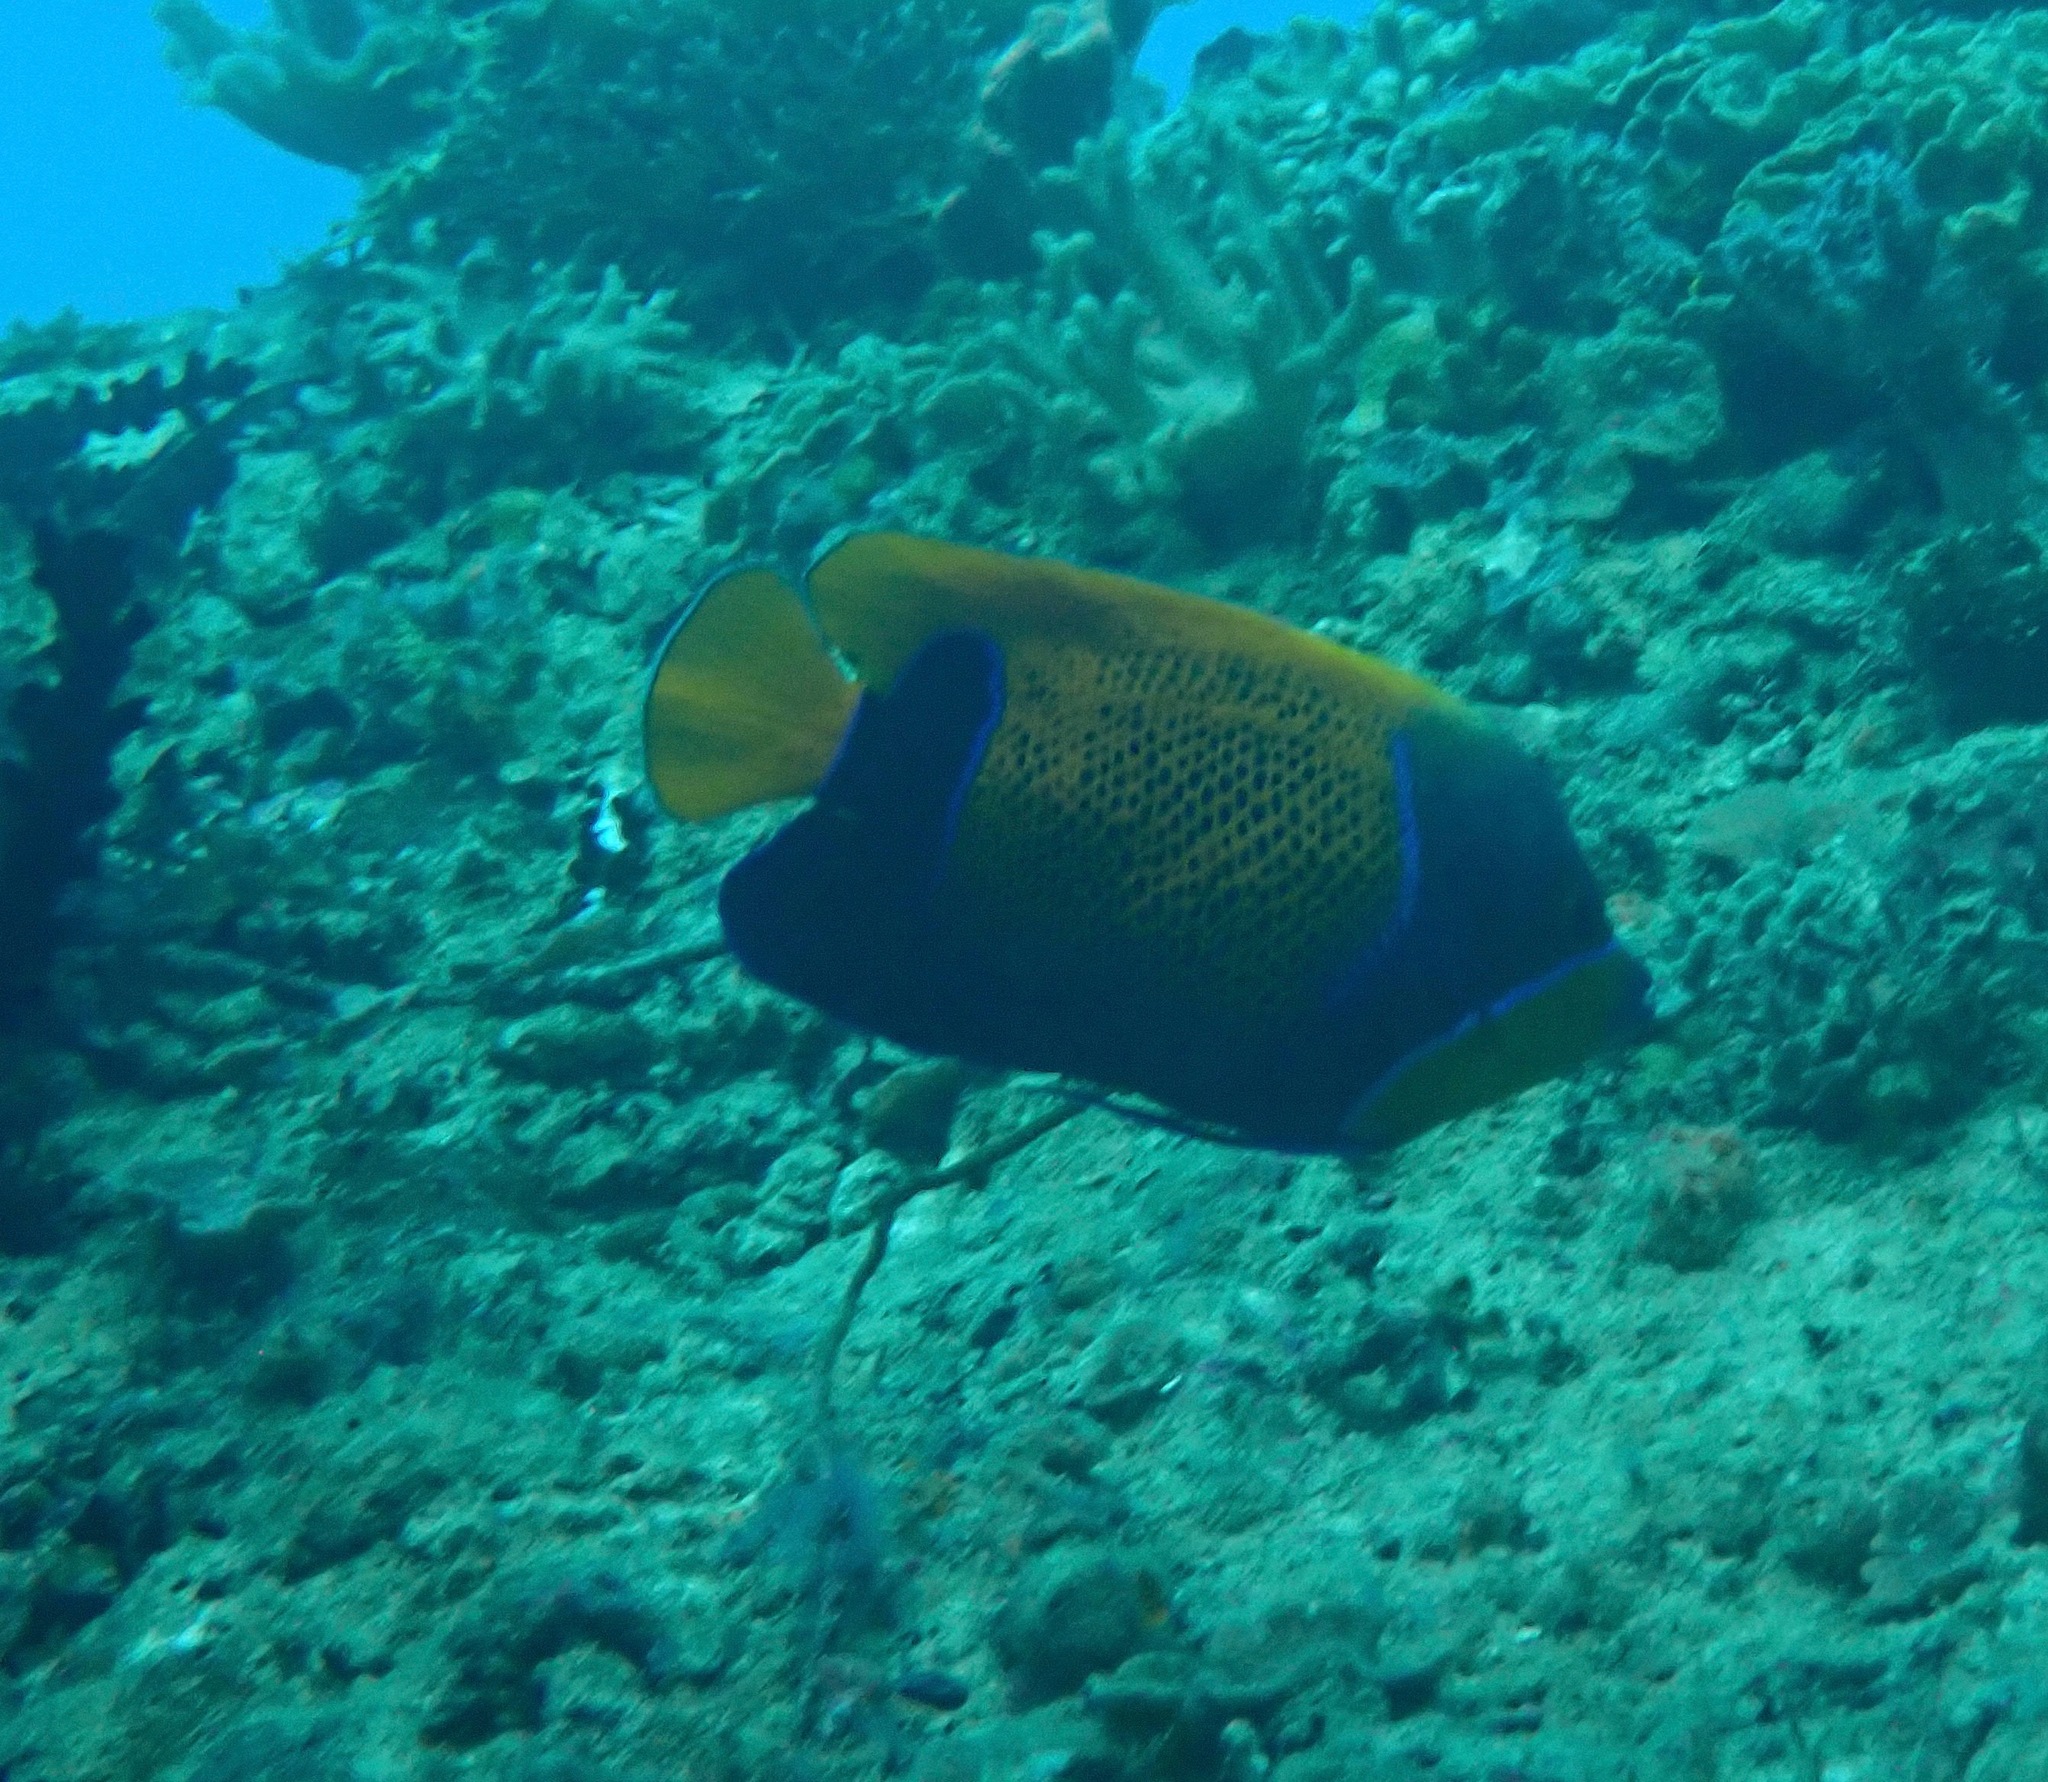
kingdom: Animalia
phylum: Chordata
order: Perciformes
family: Pomacanthidae
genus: Pomacanthus
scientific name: Pomacanthus navarchus
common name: Blue-girdled angelfish
